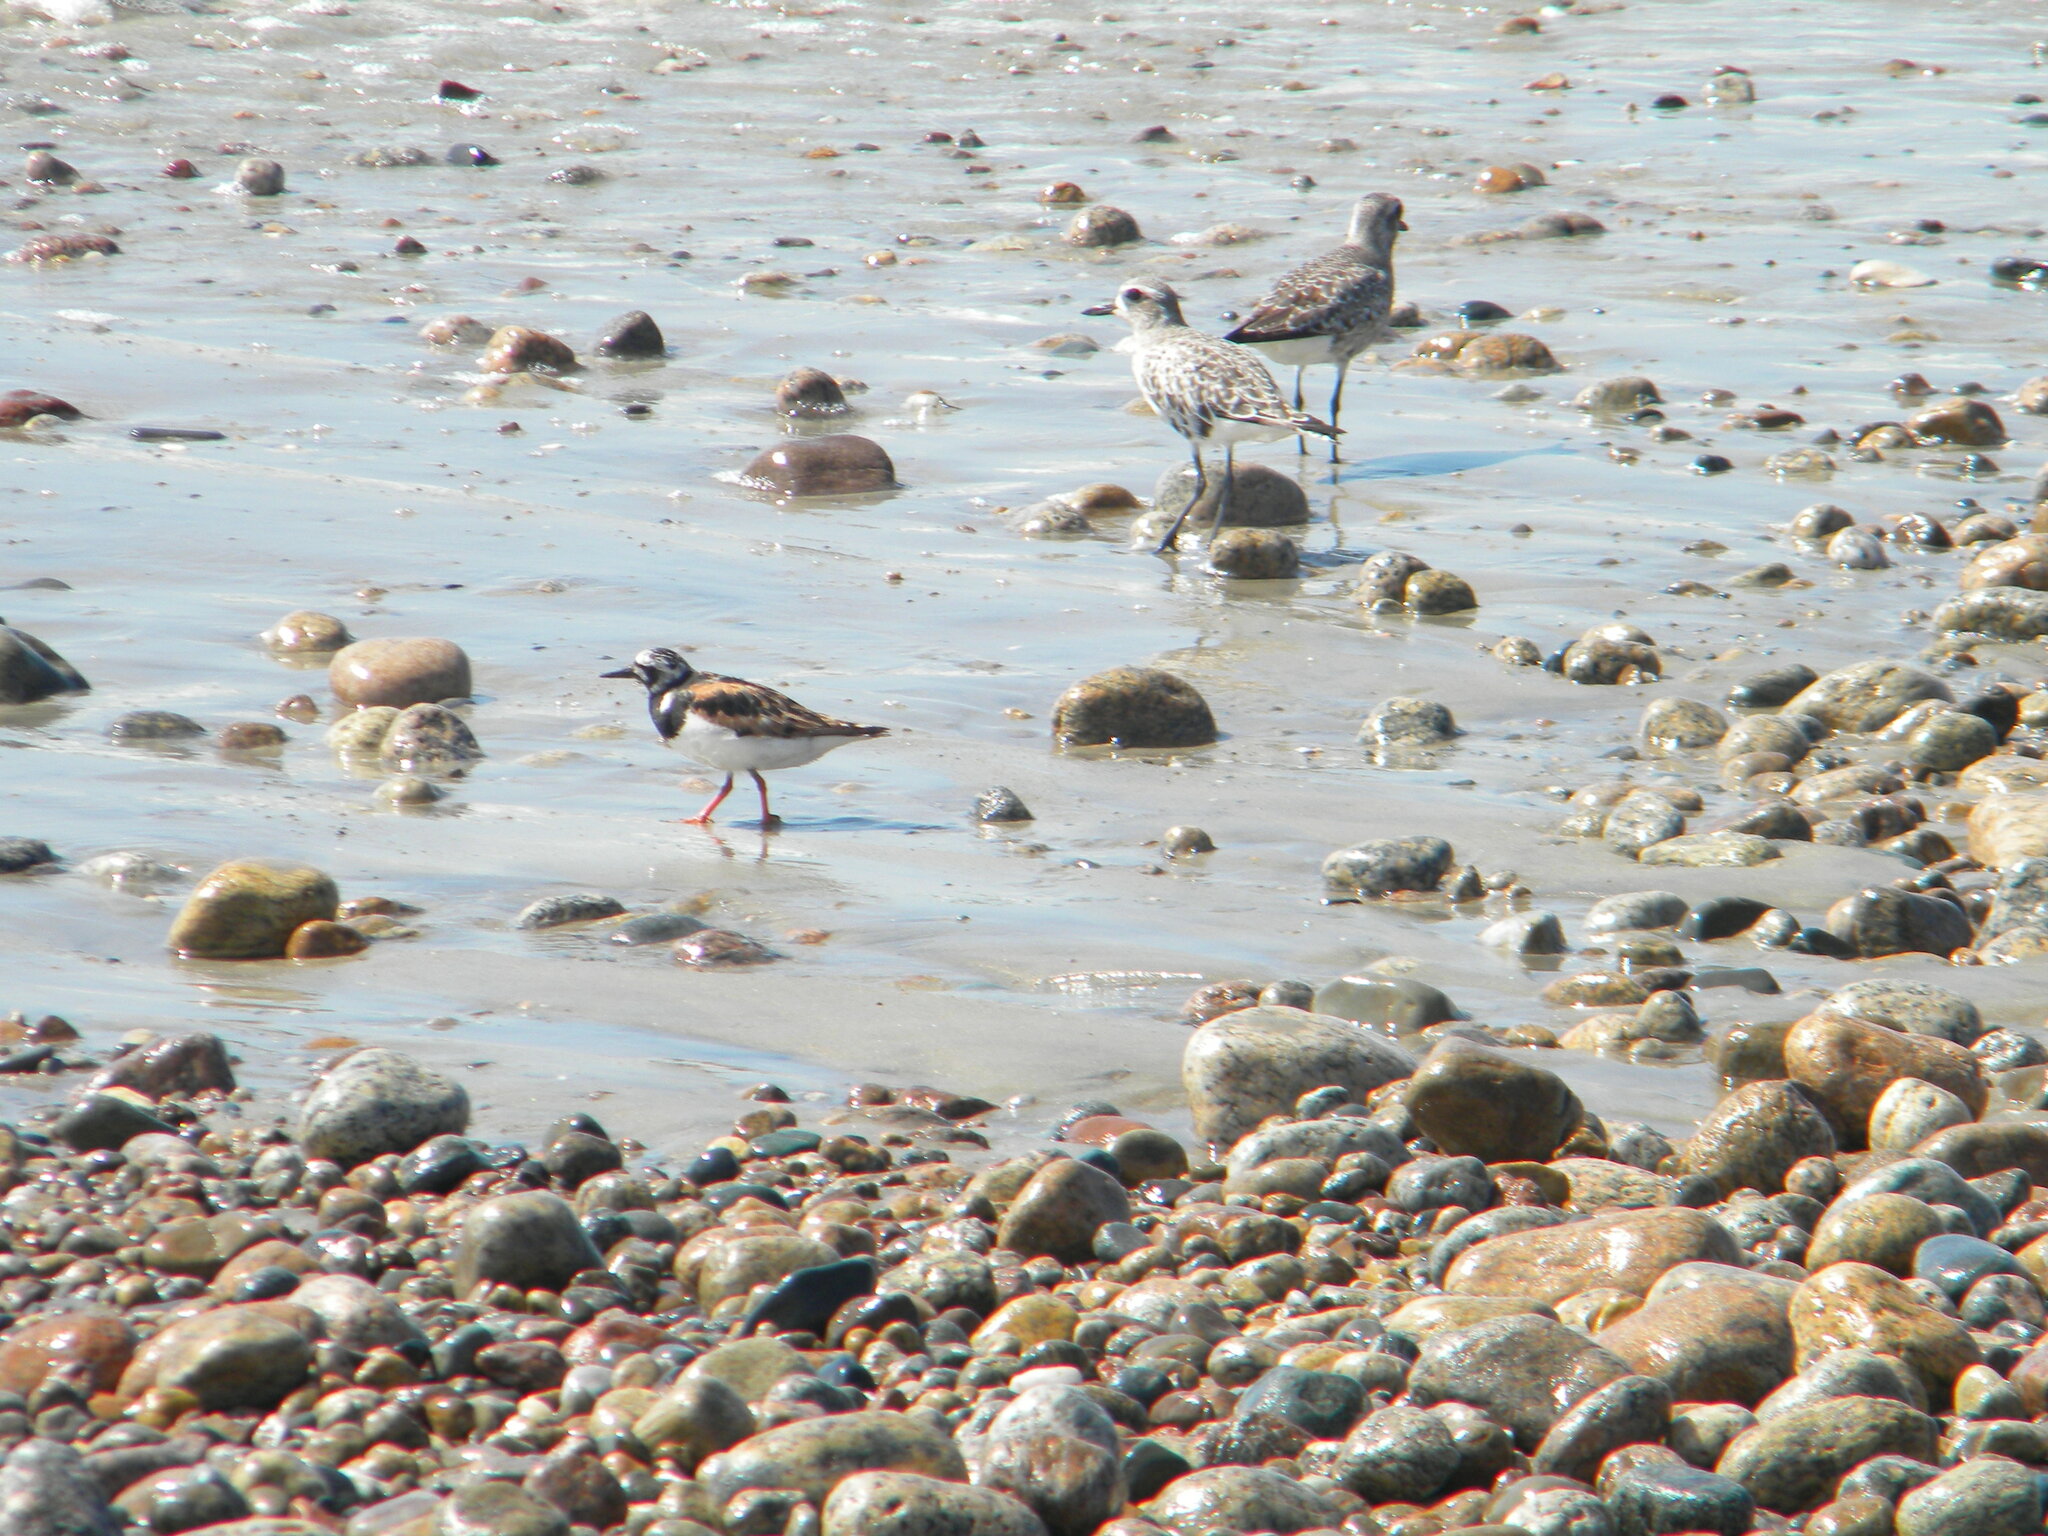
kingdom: Animalia
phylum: Chordata
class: Aves
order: Charadriiformes
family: Scolopacidae
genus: Arenaria
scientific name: Arenaria interpres
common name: Ruddy turnstone
